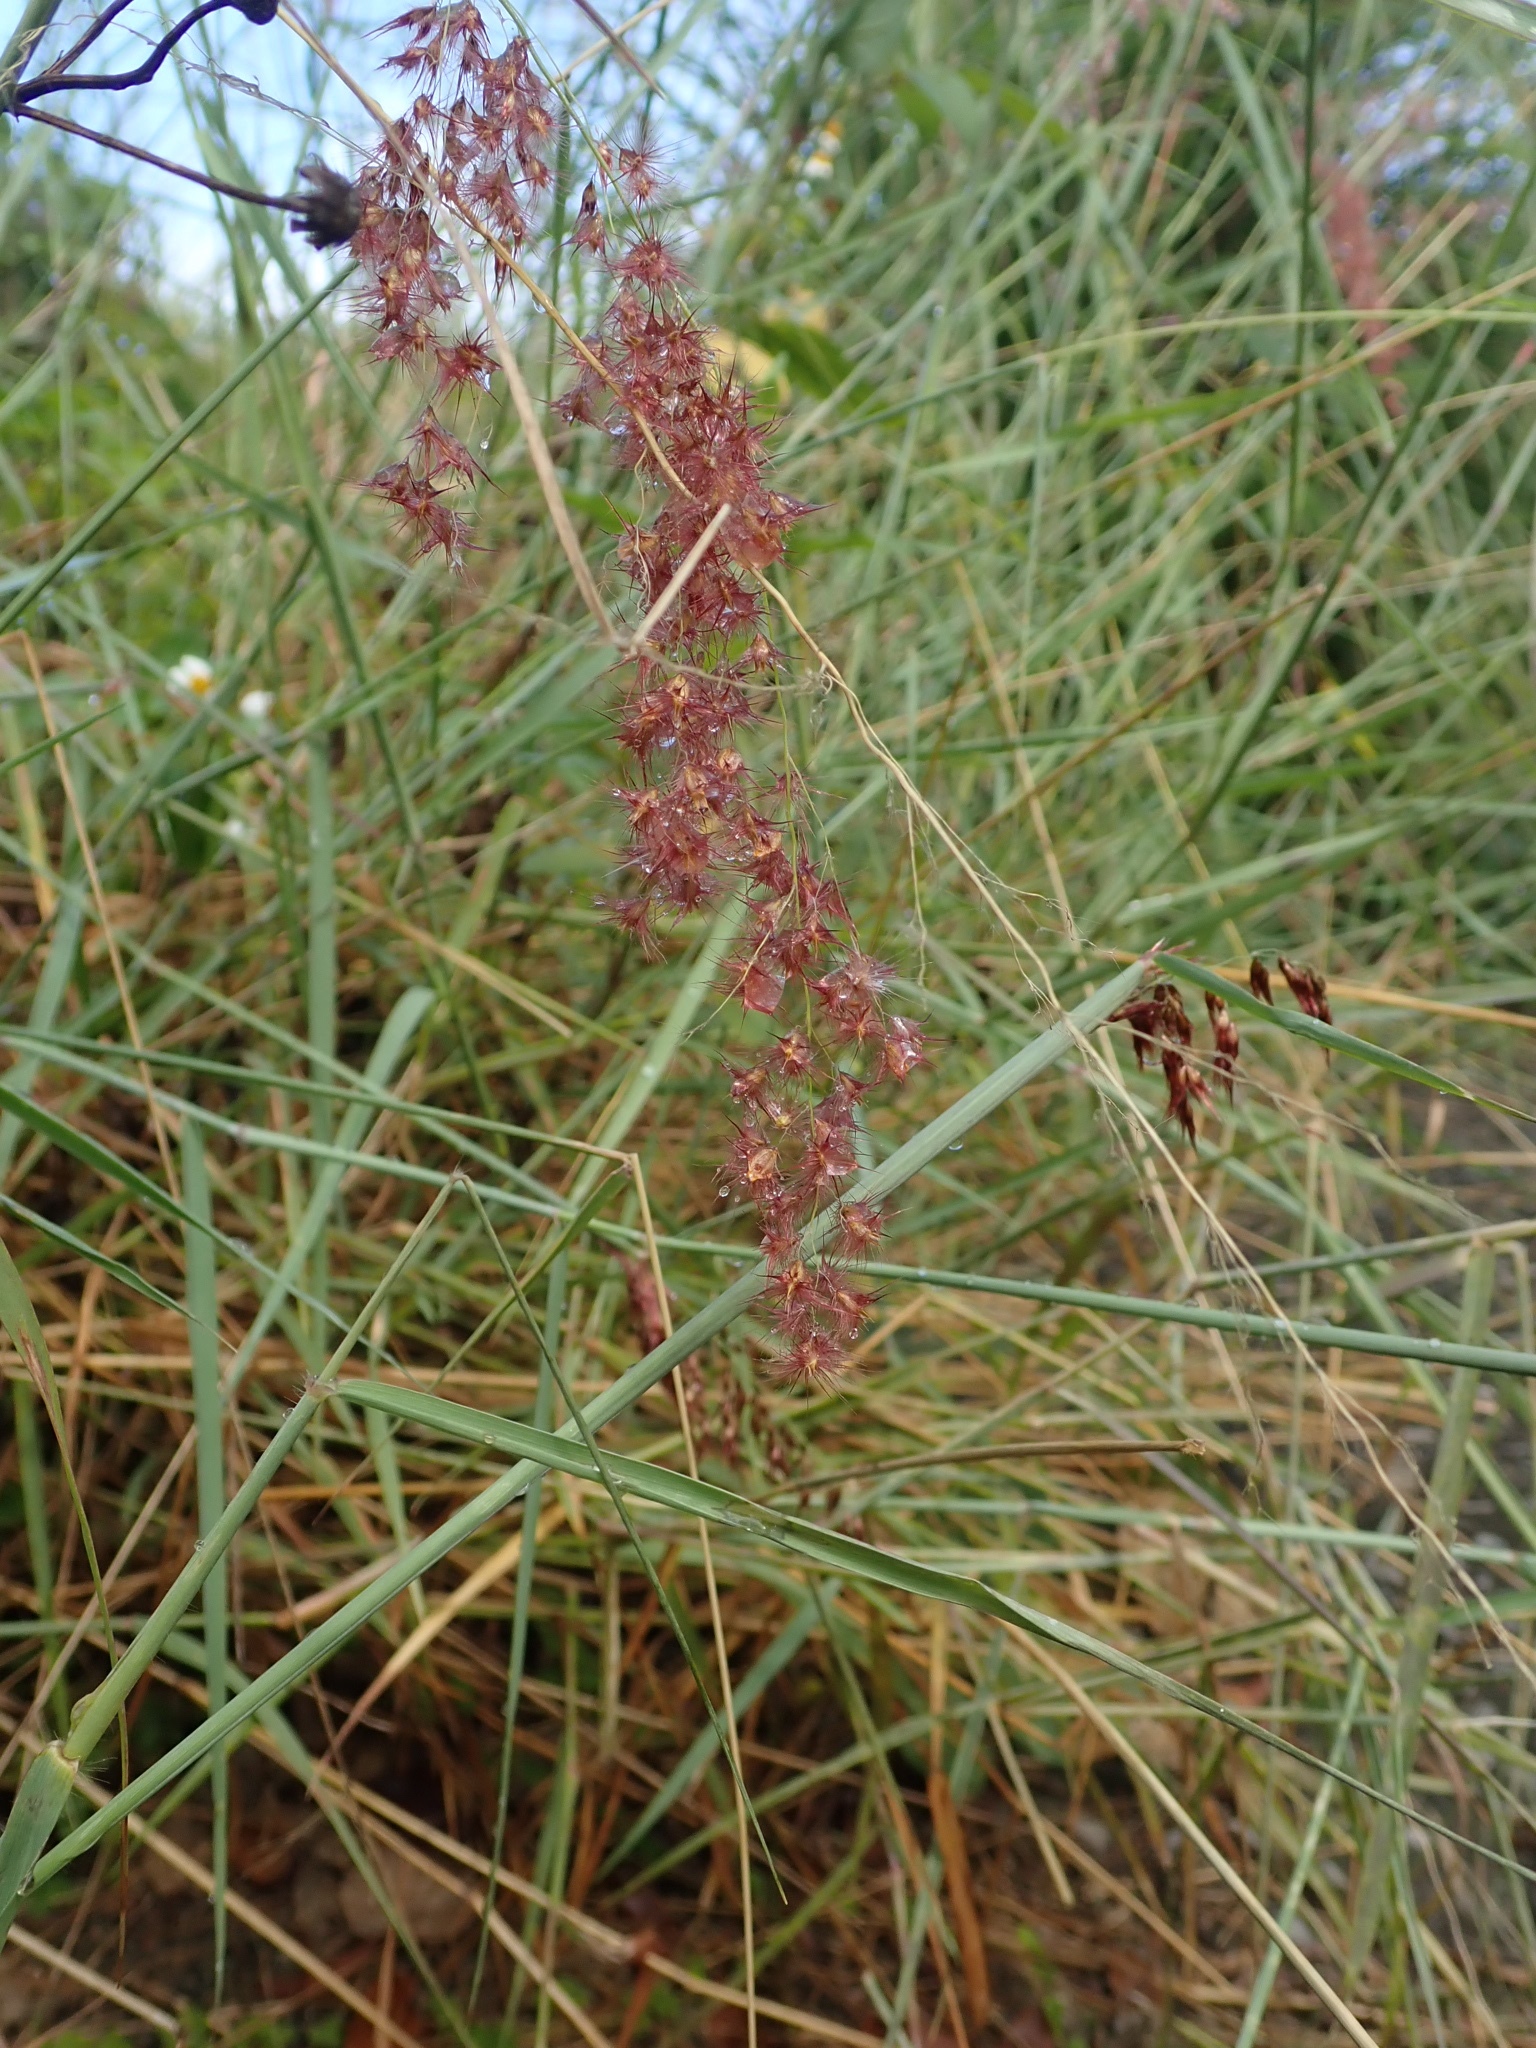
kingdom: Plantae
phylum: Tracheophyta
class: Liliopsida
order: Poales
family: Poaceae
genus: Melinis
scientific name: Melinis repens
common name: Rose natal grass
